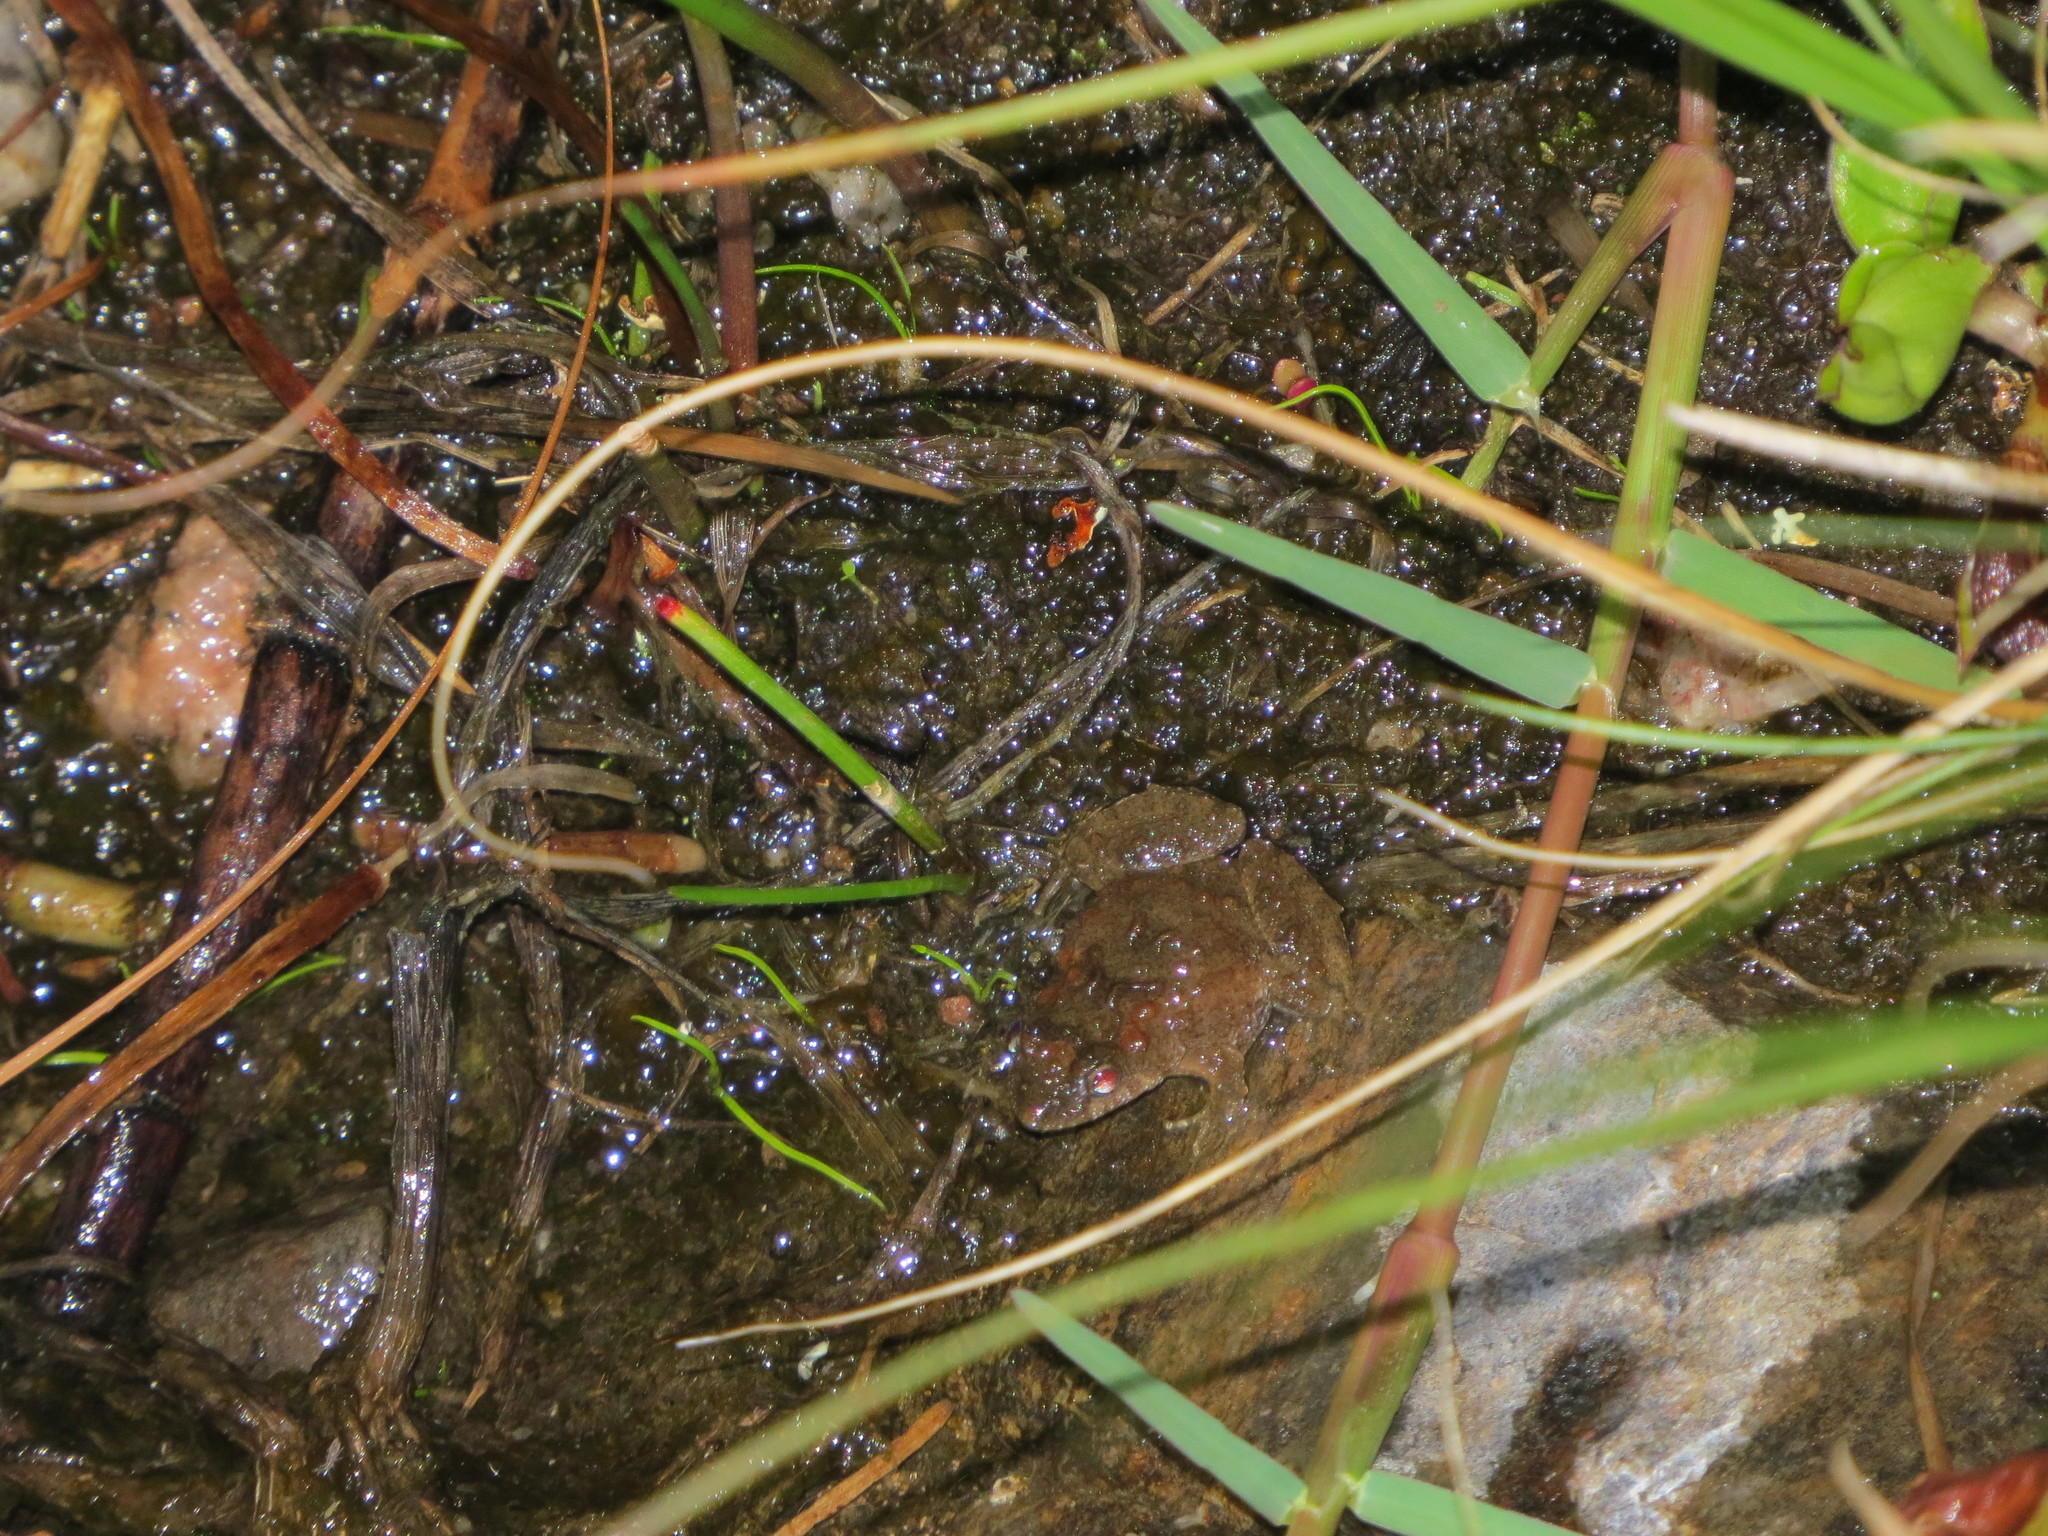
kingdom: Animalia
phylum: Chordata
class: Amphibia
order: Anura
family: Leptodactylidae
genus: Pseudopaludicola
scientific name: Pseudopaludicola falcipes
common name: Hensel’s swamp frog
